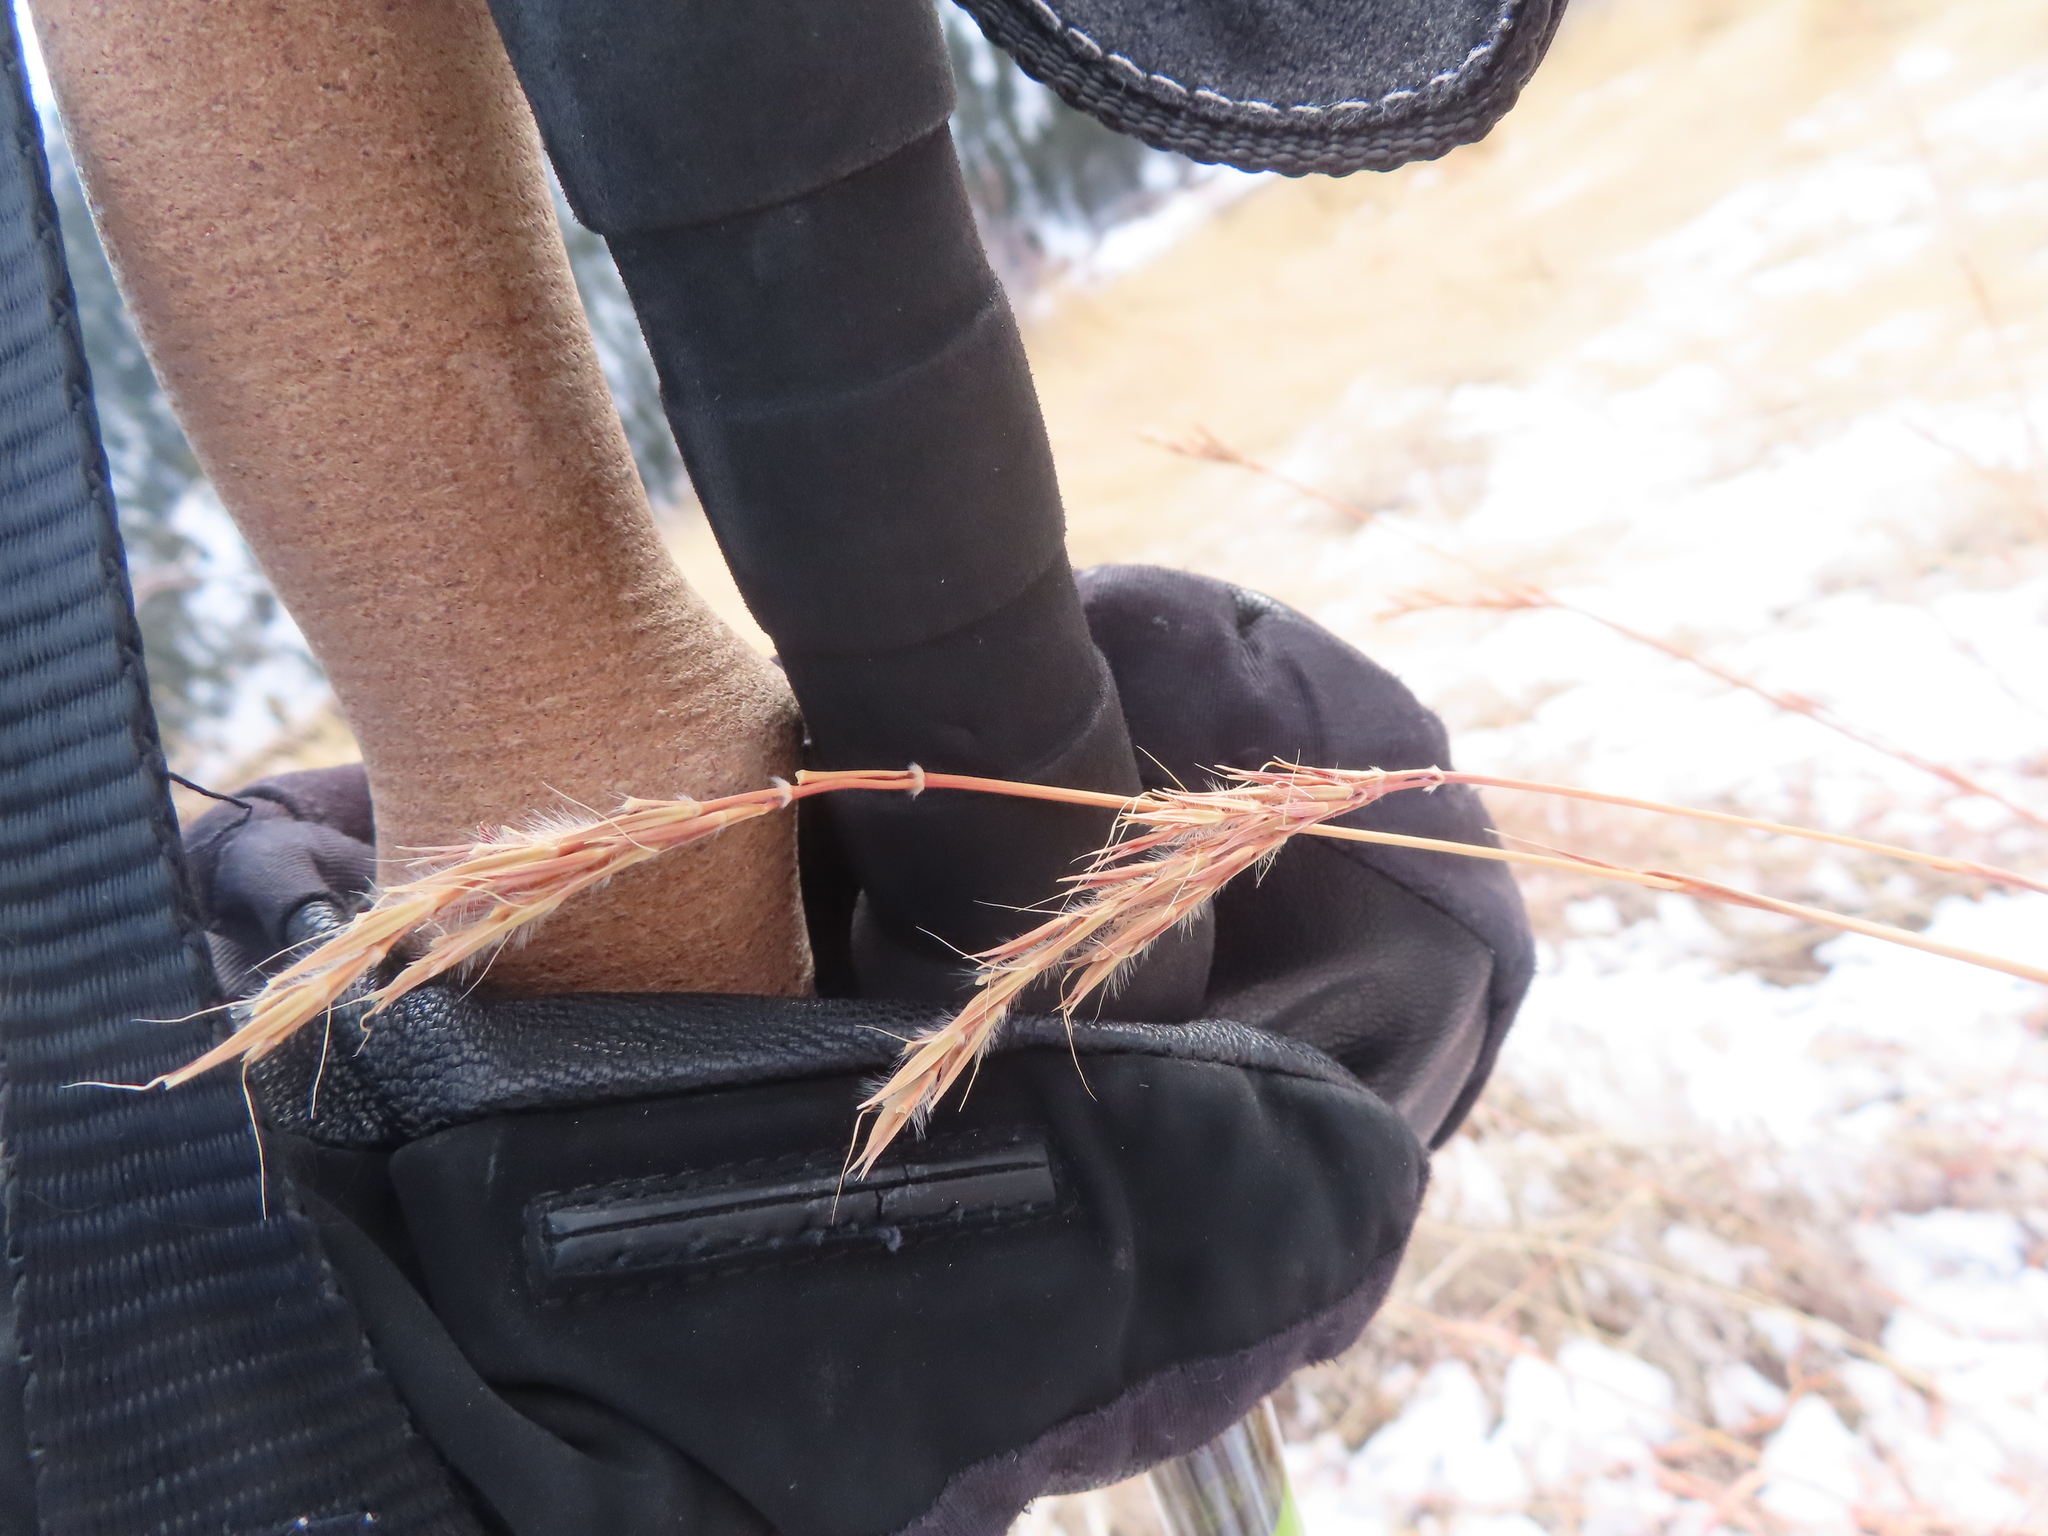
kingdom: Plantae
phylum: Tracheophyta
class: Liliopsida
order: Poales
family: Poaceae
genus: Andropogon
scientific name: Andropogon gerardi
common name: Big bluestem
